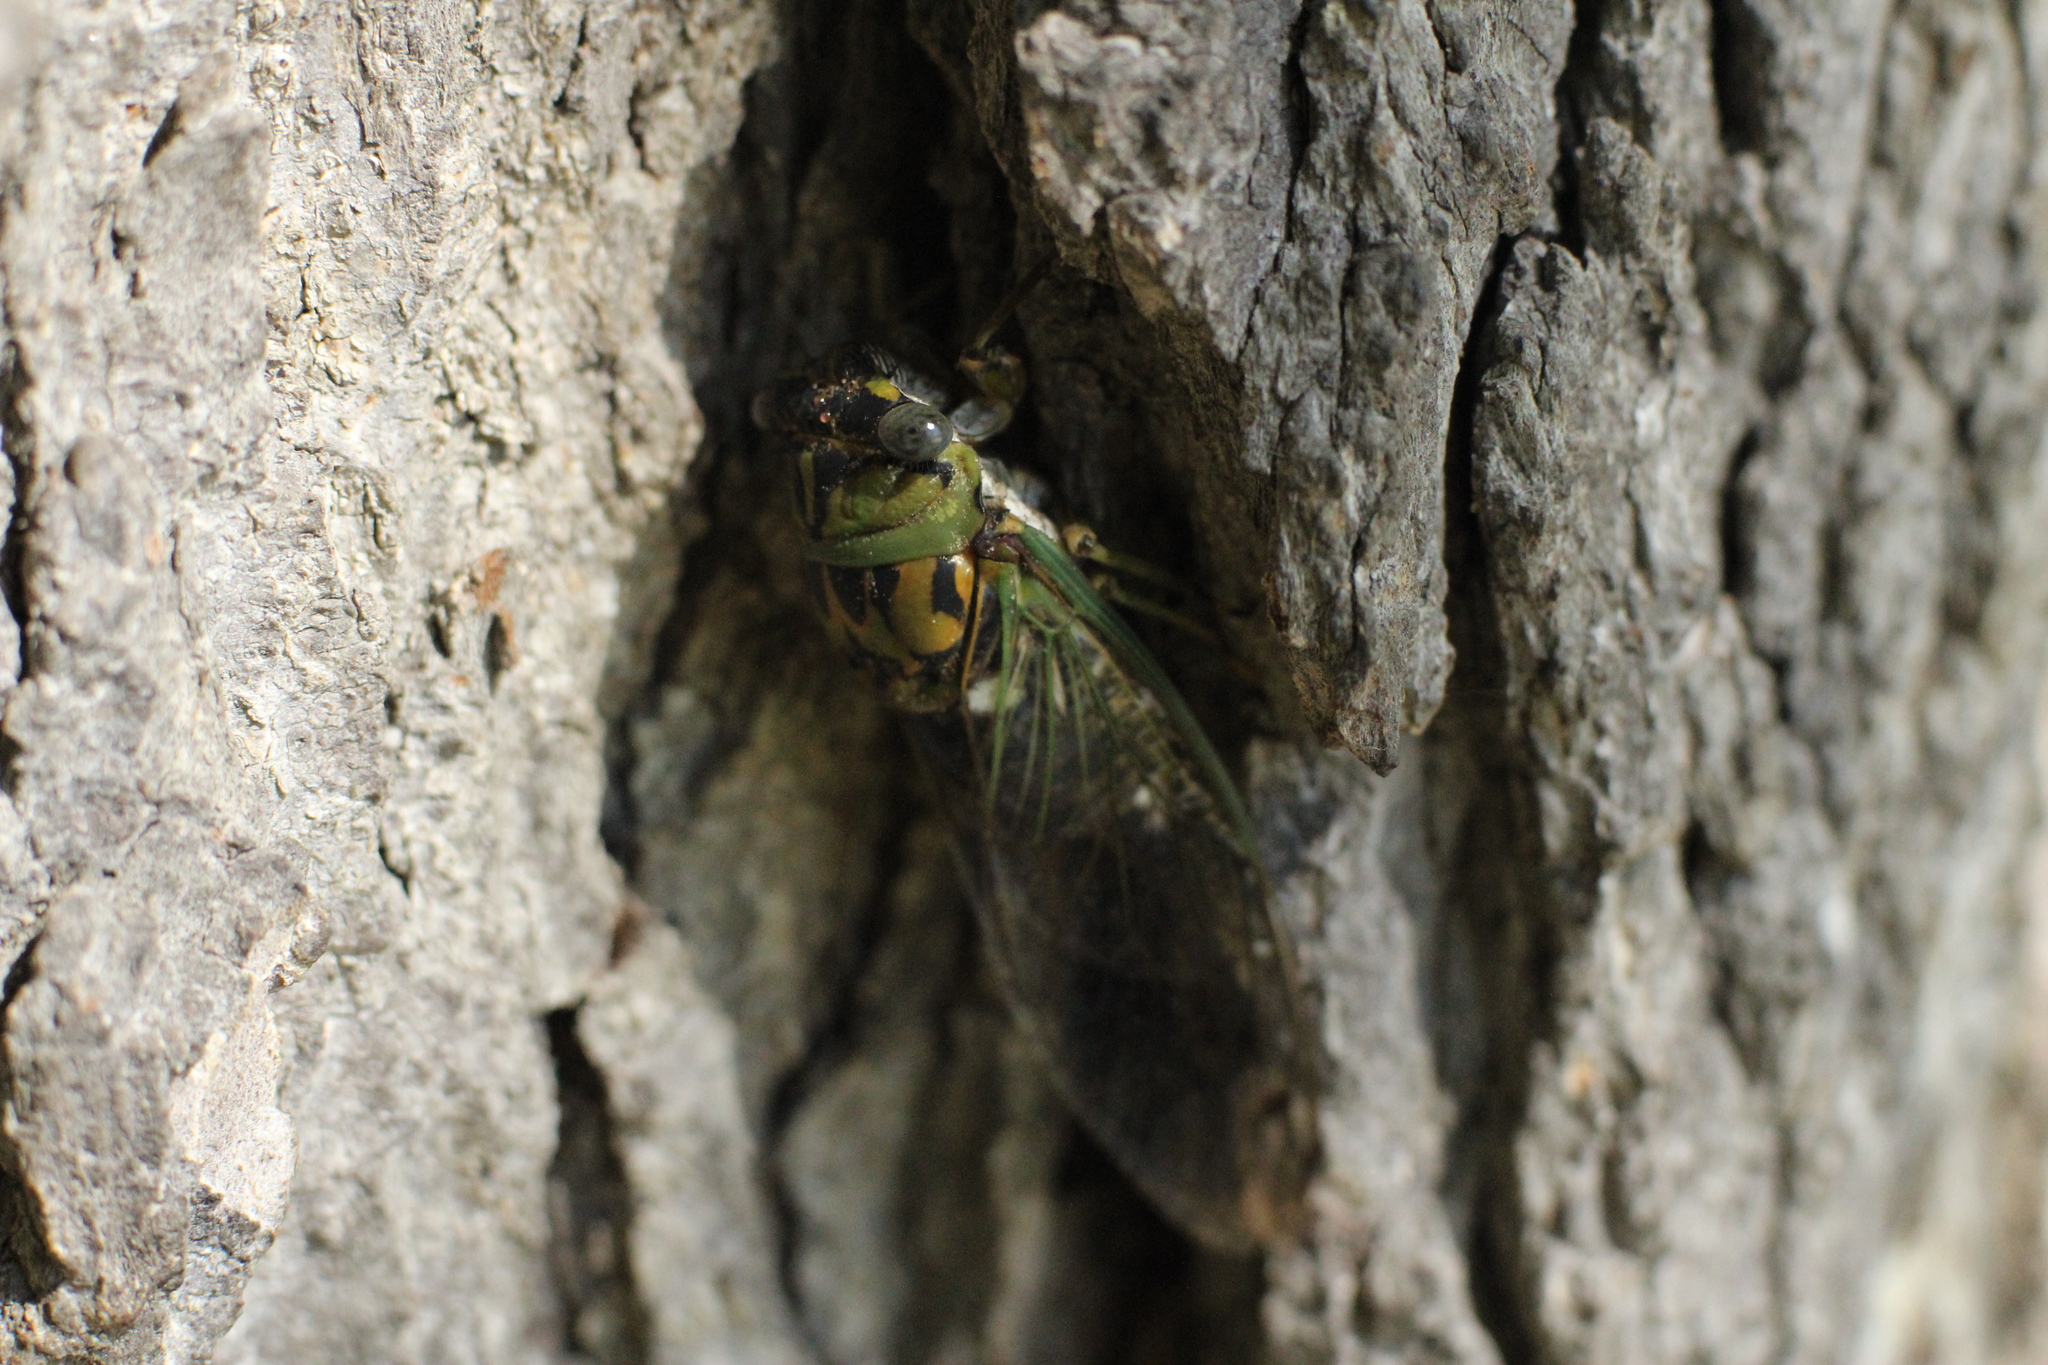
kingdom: Animalia
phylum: Arthropoda
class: Insecta
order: Hemiptera
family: Cicadidae
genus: Neotibicen
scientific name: Neotibicen pruinosus
